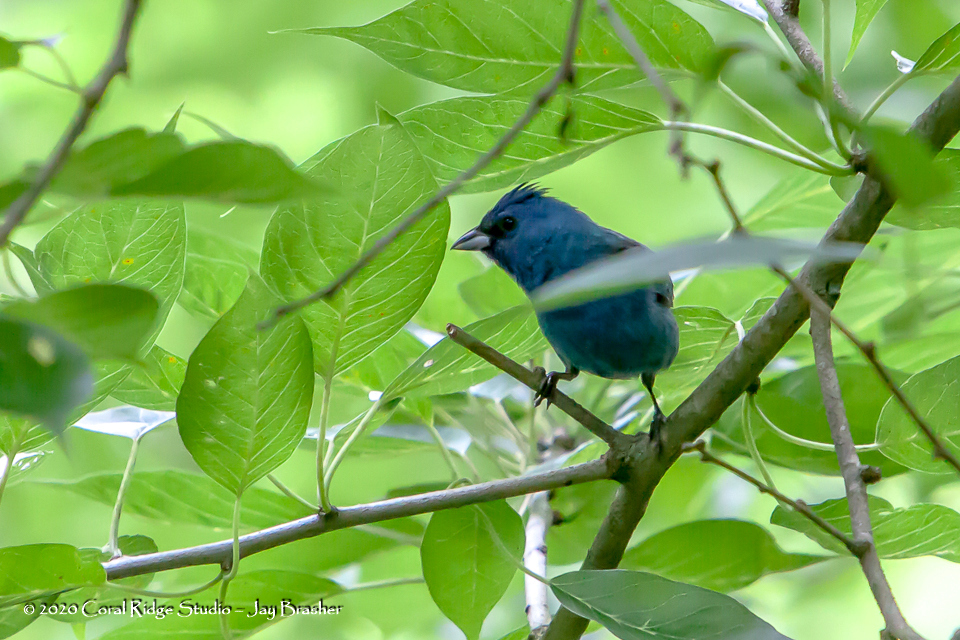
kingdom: Animalia
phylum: Chordata
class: Aves
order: Passeriformes
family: Cardinalidae
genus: Passerina
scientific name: Passerina cyanea
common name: Indigo bunting
